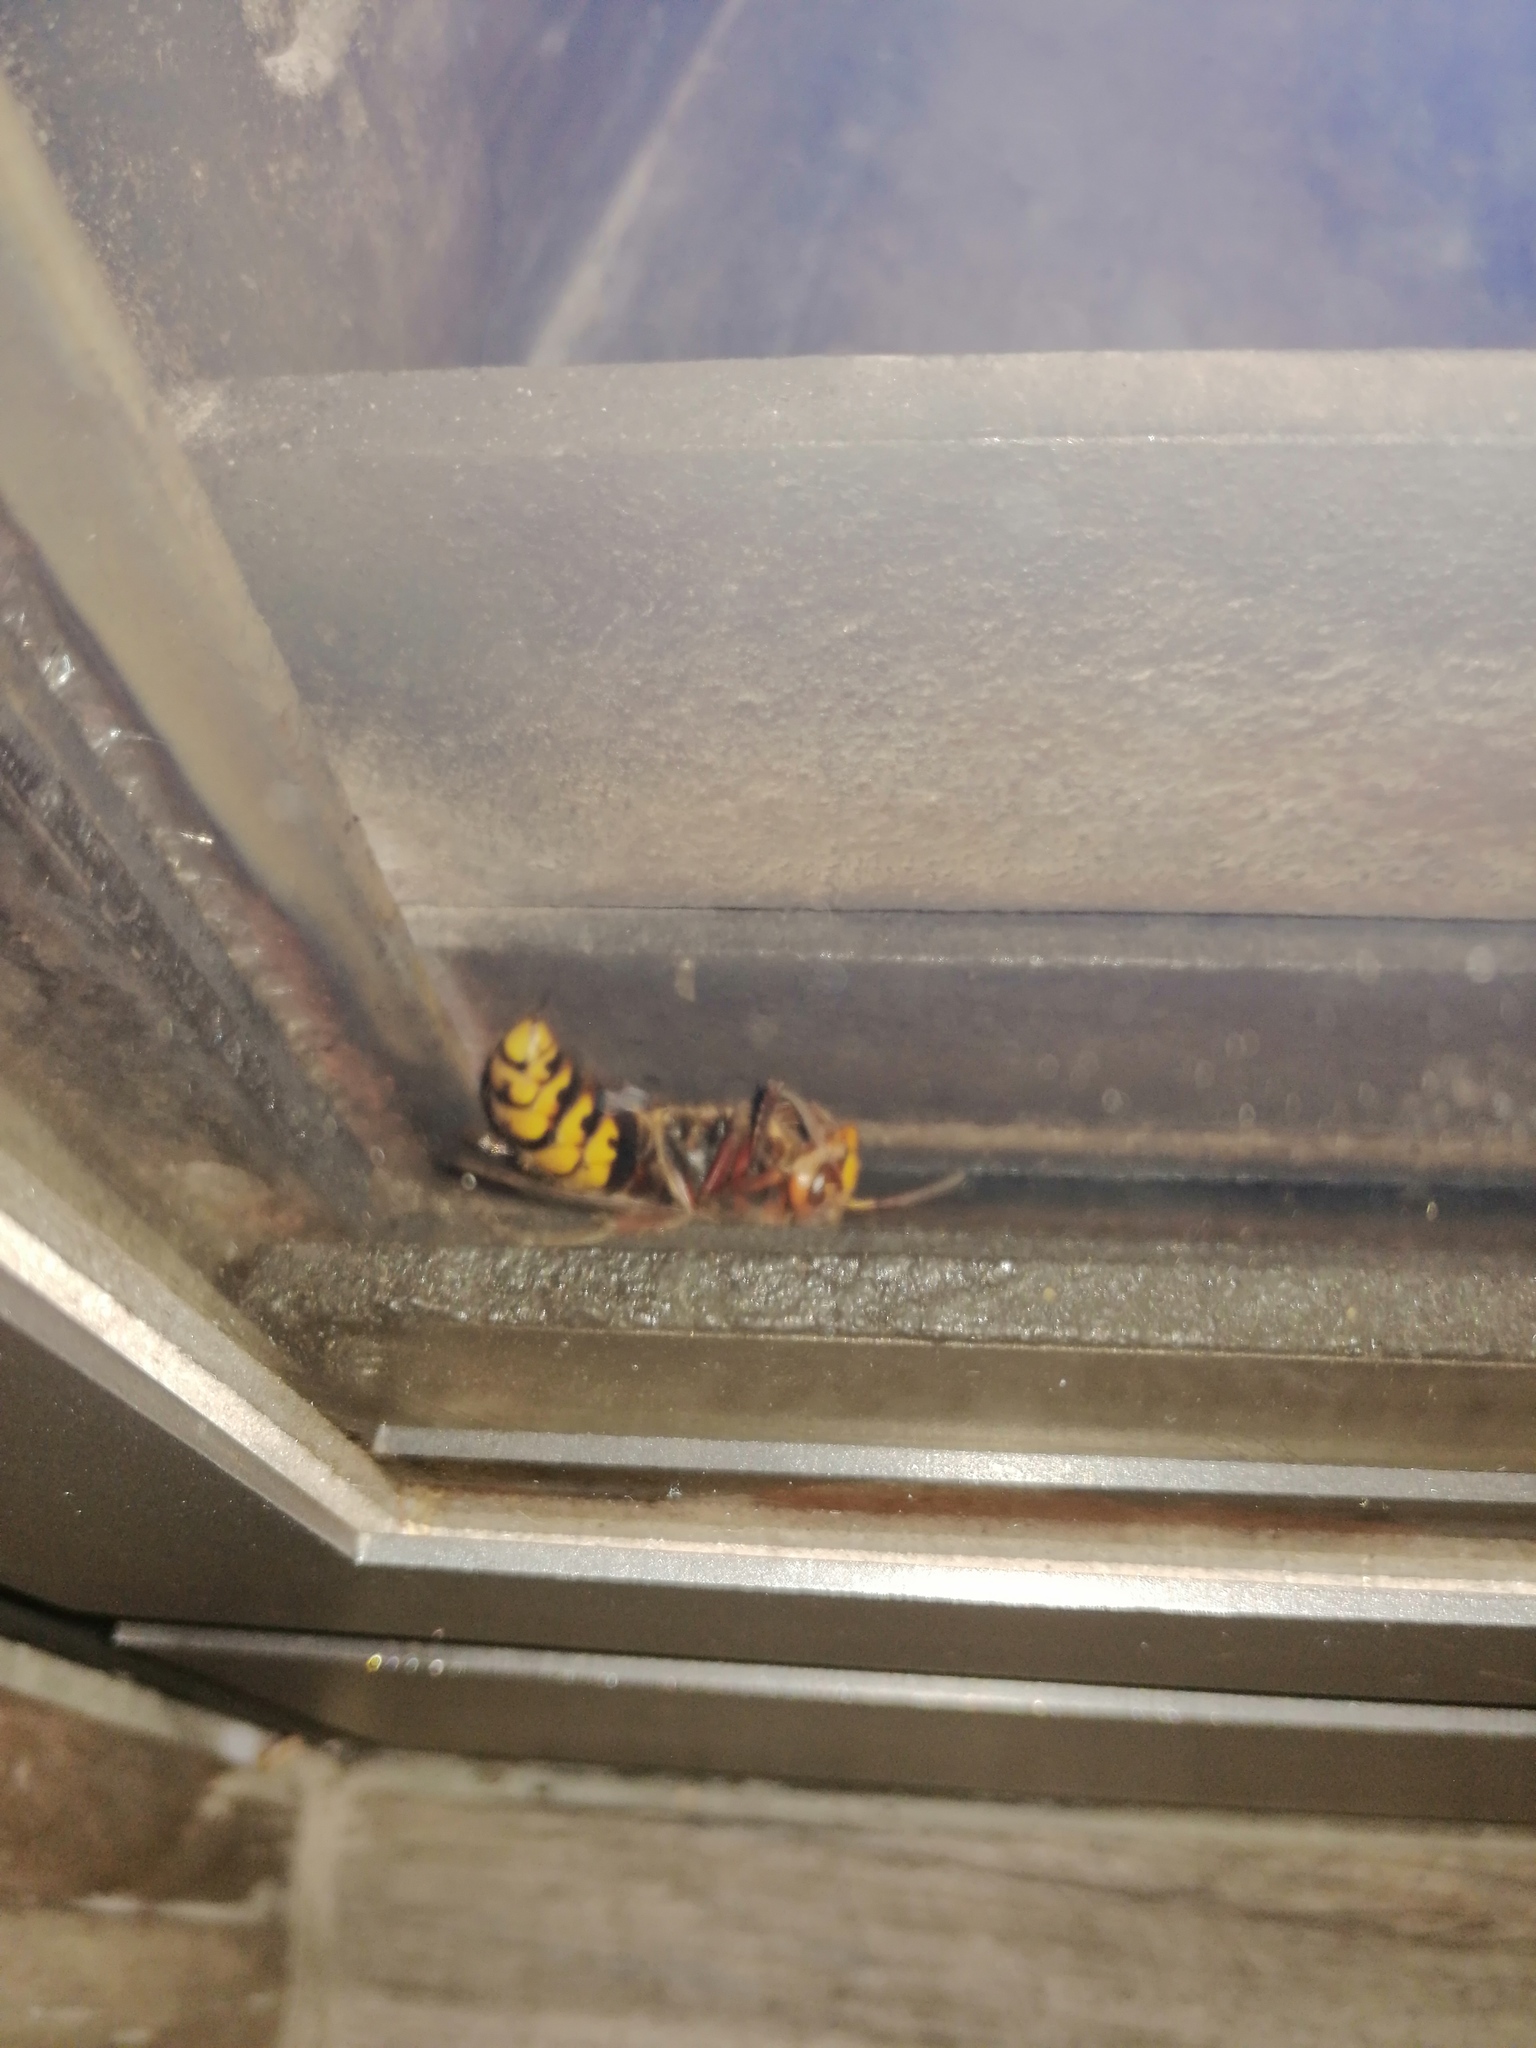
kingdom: Animalia
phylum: Arthropoda
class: Insecta
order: Hymenoptera
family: Vespidae
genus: Vespa
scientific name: Vespa crabro
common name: Hornet
